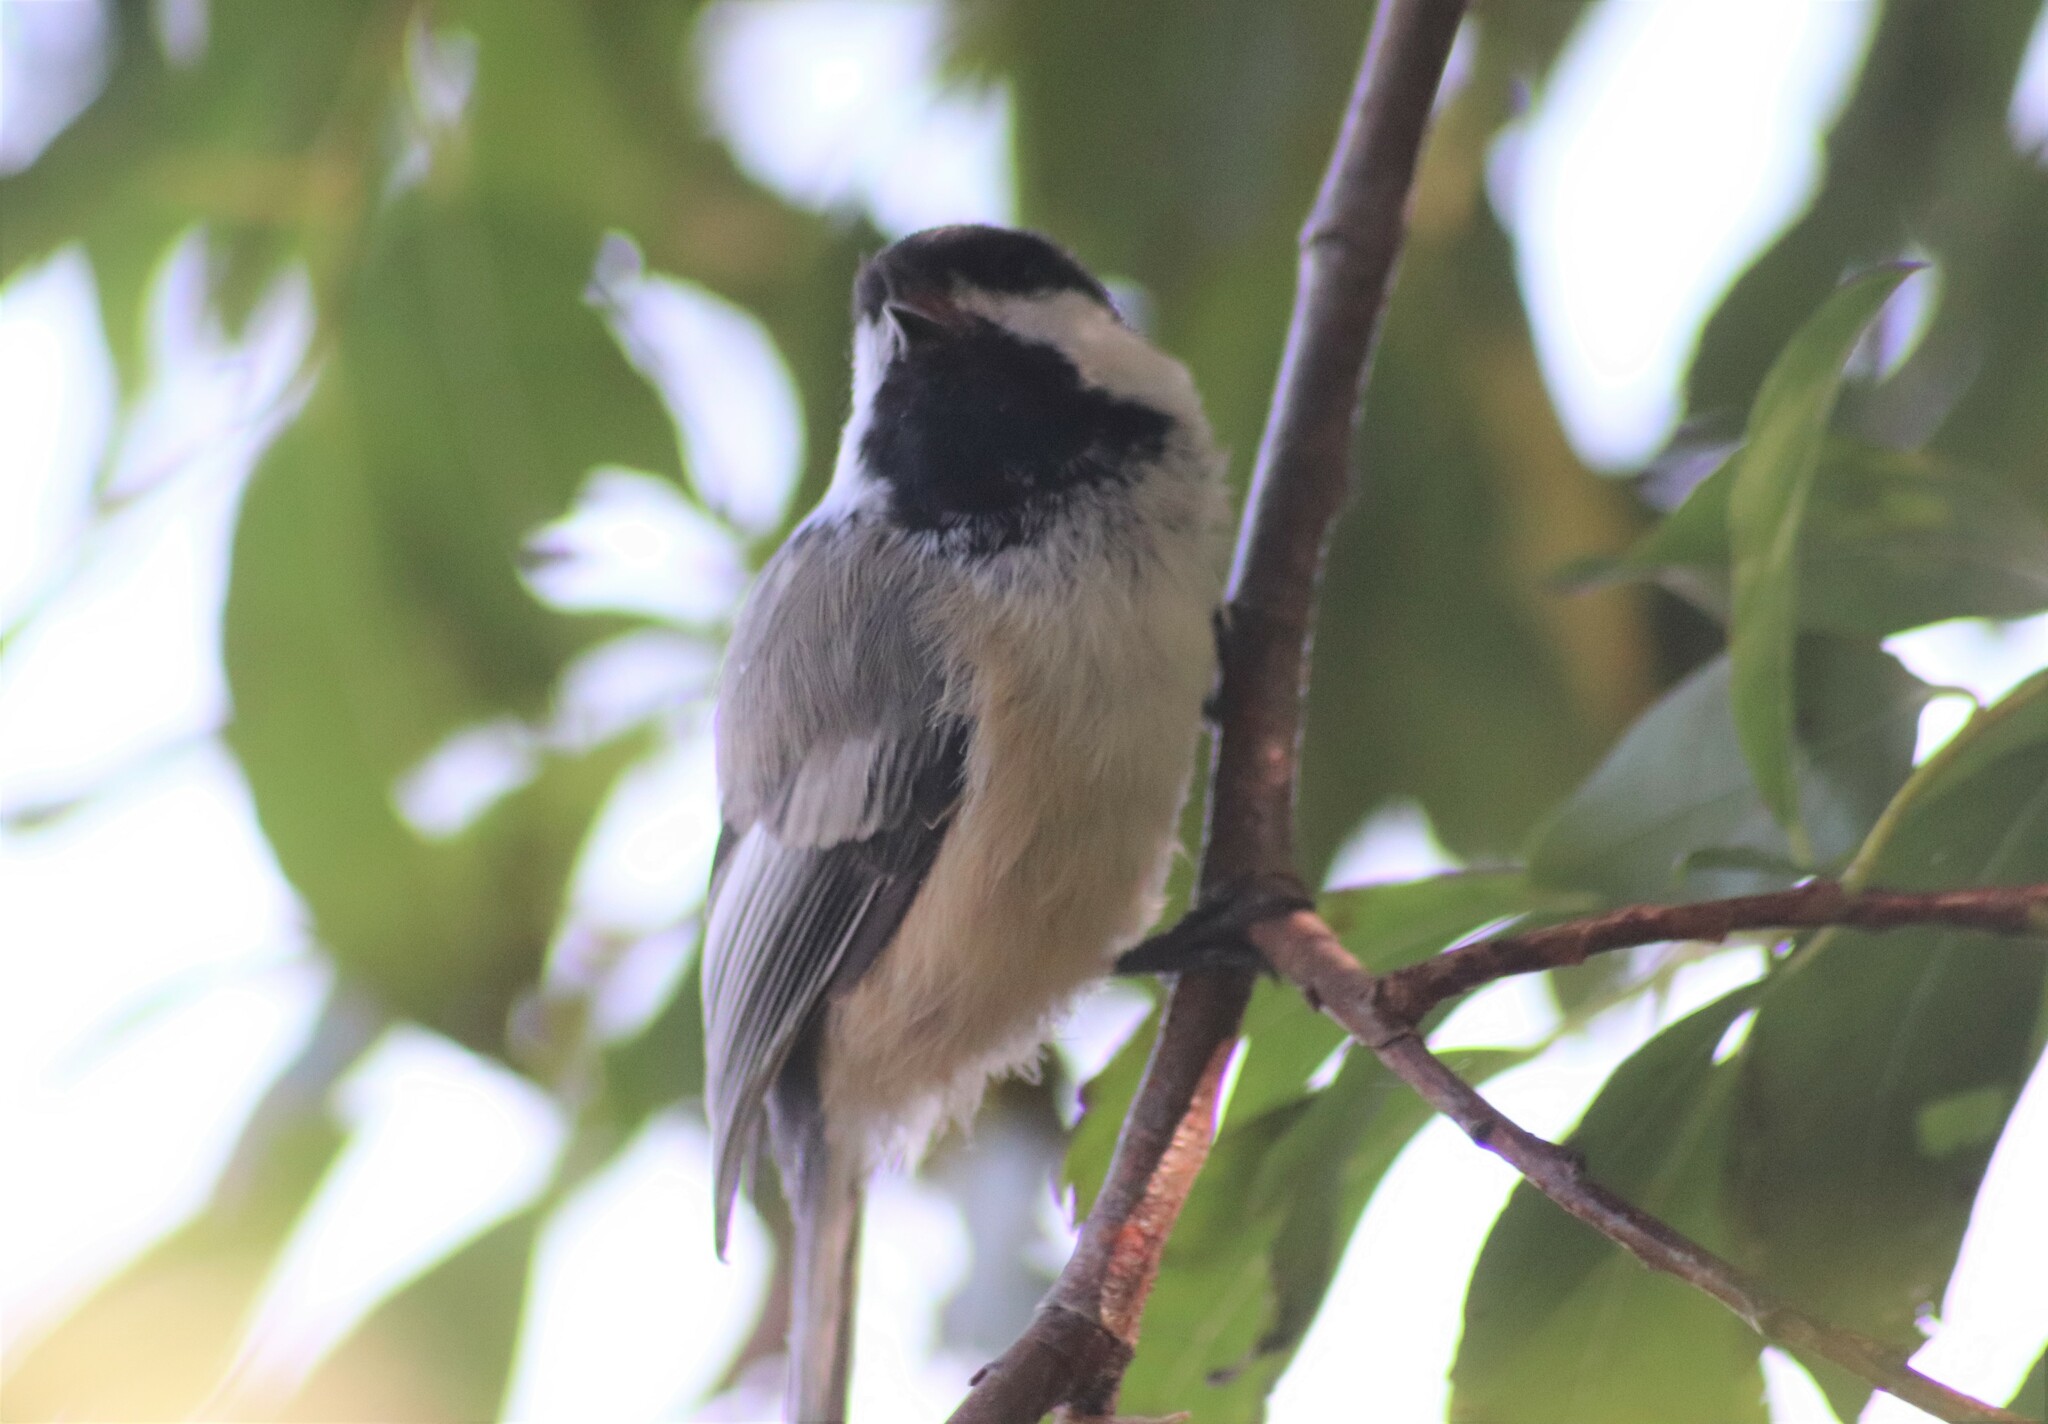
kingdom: Animalia
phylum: Chordata
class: Aves
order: Passeriformes
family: Paridae
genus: Poecile
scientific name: Poecile atricapillus
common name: Black-capped chickadee
